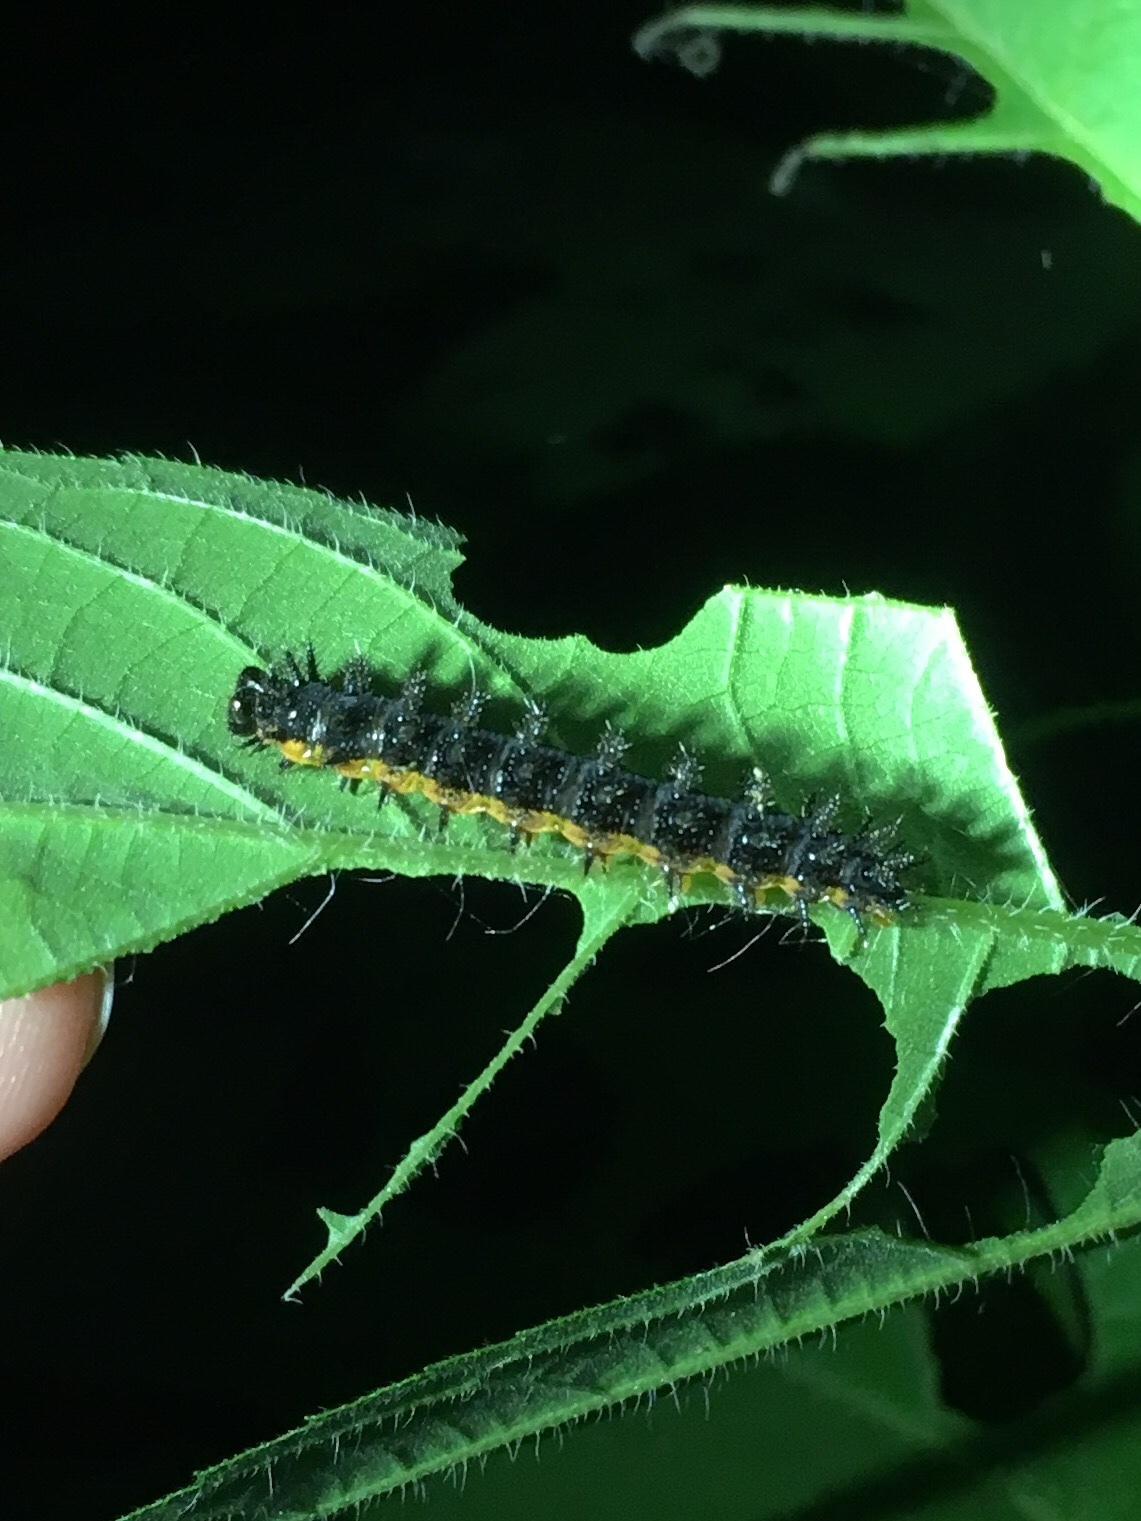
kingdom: Animalia
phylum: Arthropoda
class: Insecta
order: Lepidoptera
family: Nymphalidae
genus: Chlosyne
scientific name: Chlosyne nycteis
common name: Silvery checkerspot
